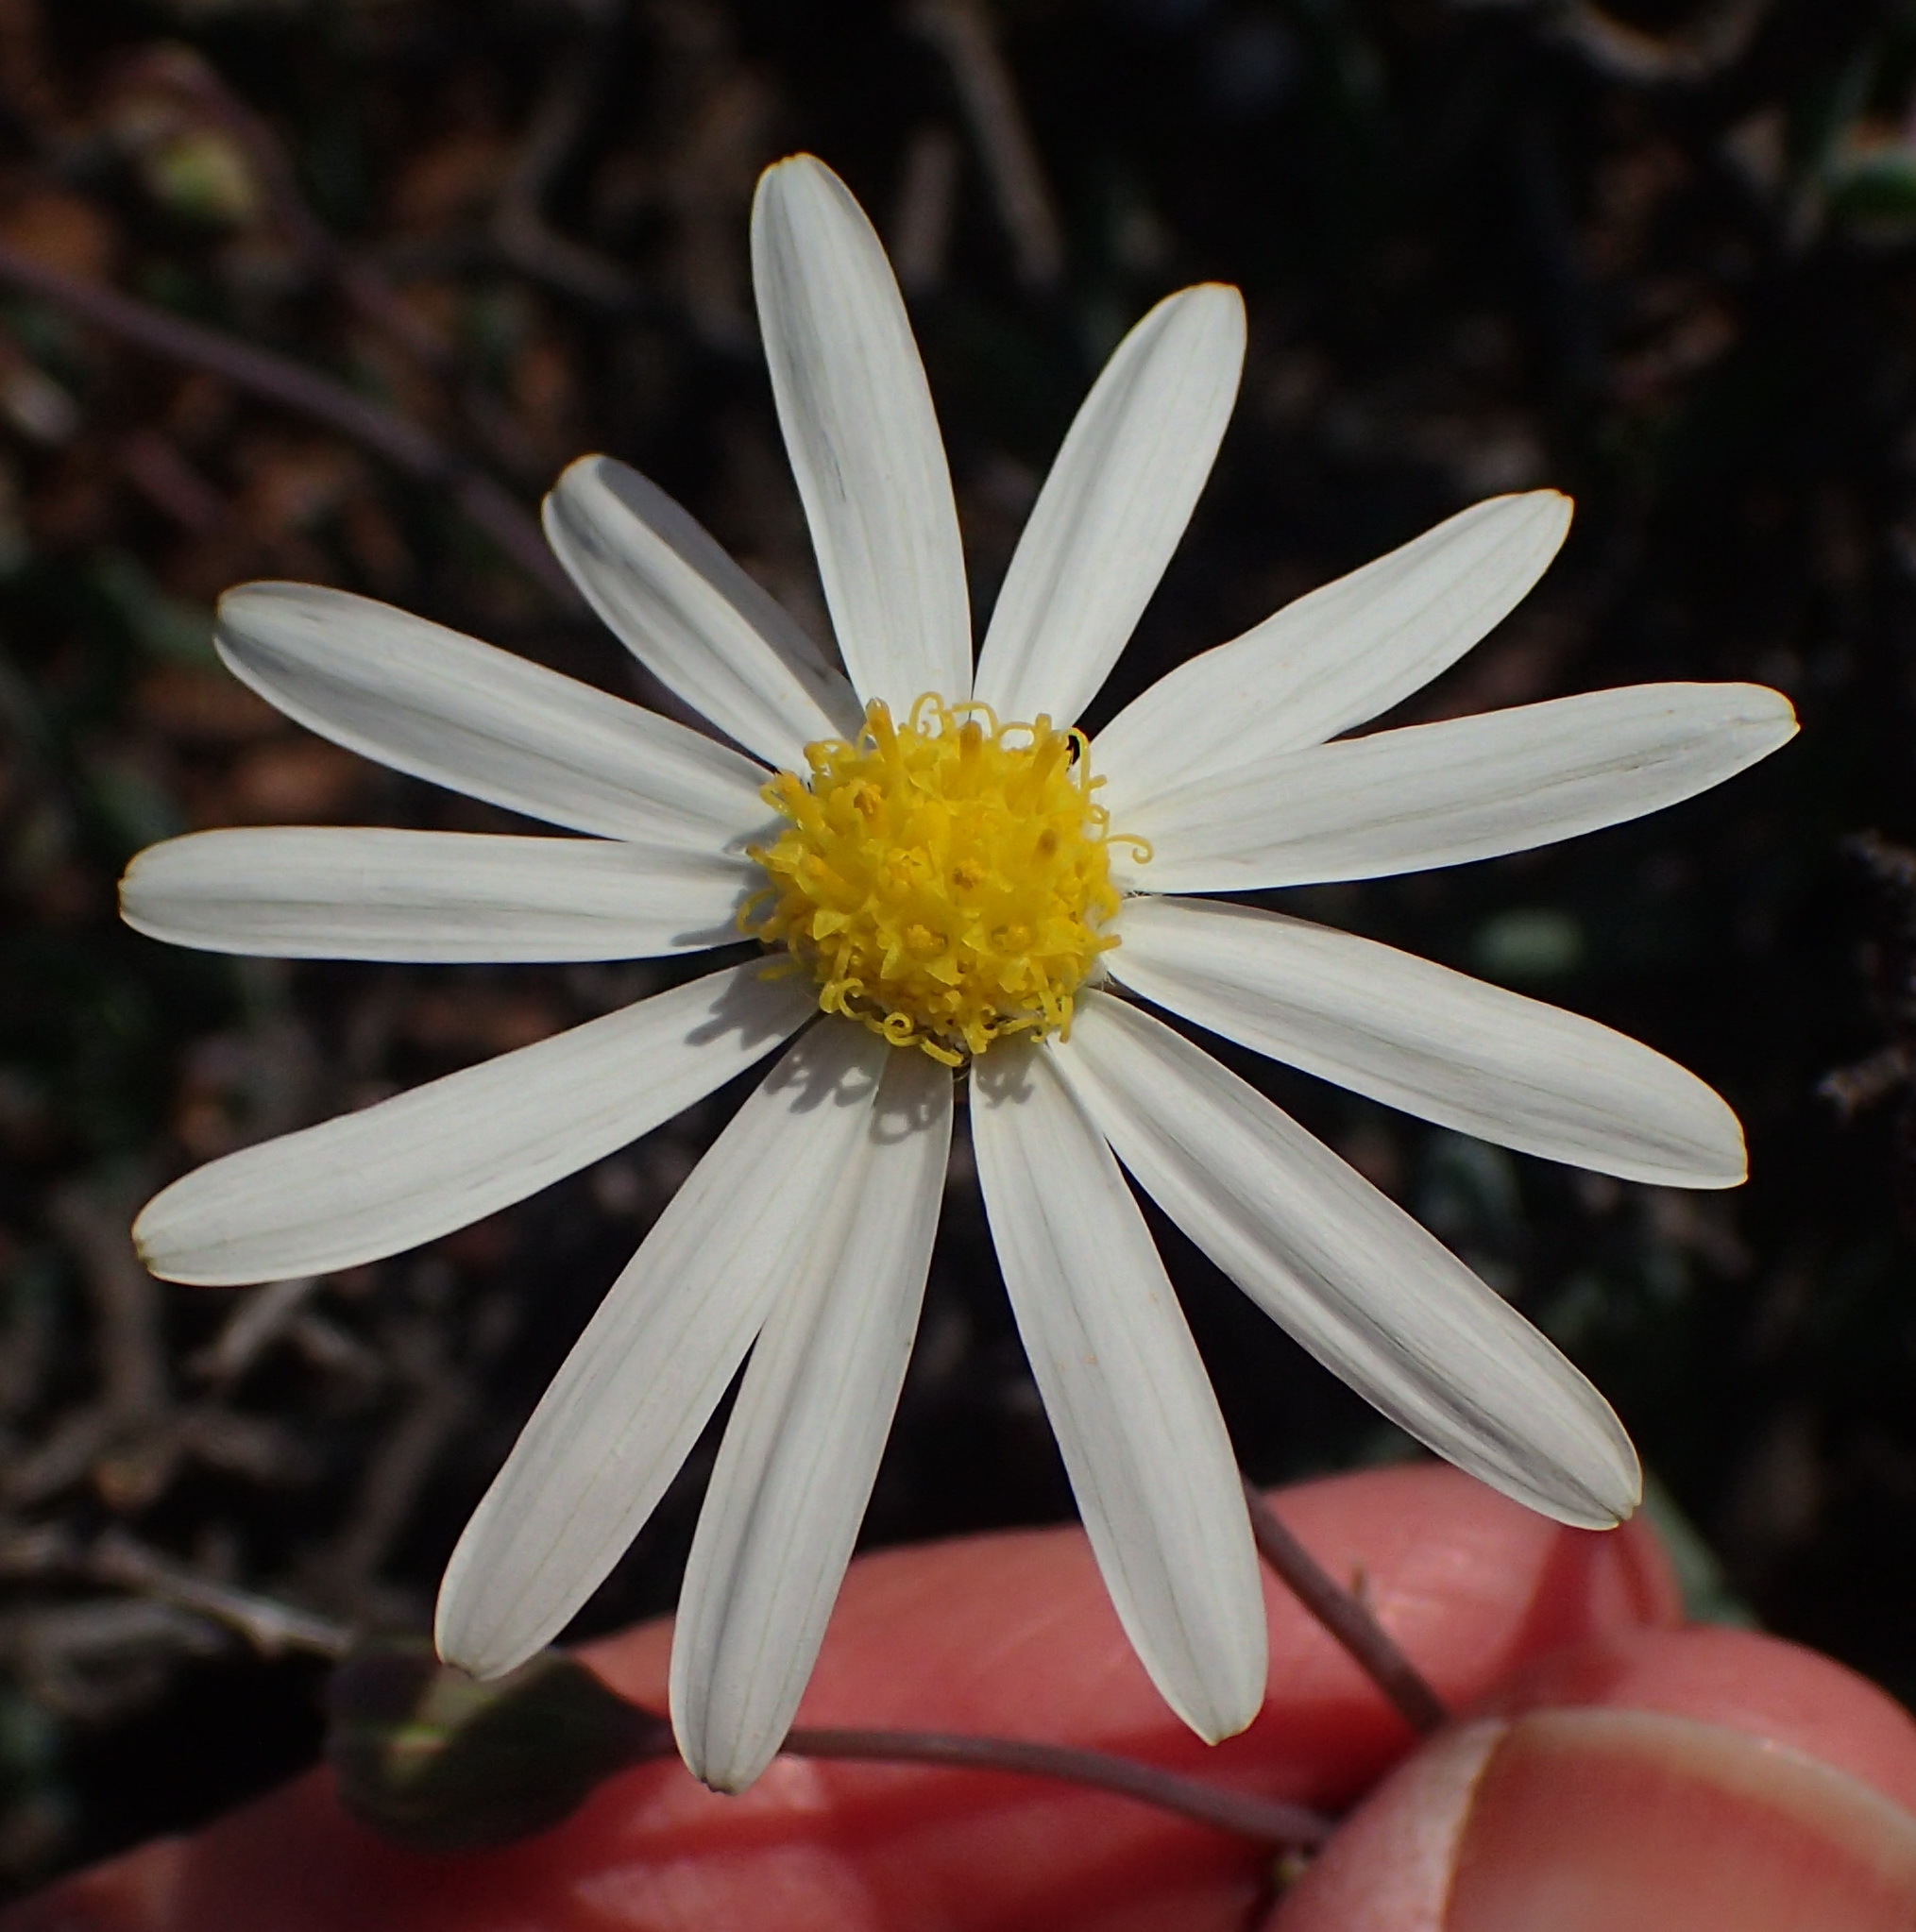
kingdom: Plantae
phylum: Tracheophyta
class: Magnoliopsida
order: Asterales
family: Asteraceae
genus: Crassothonna
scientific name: Crassothonna alba
